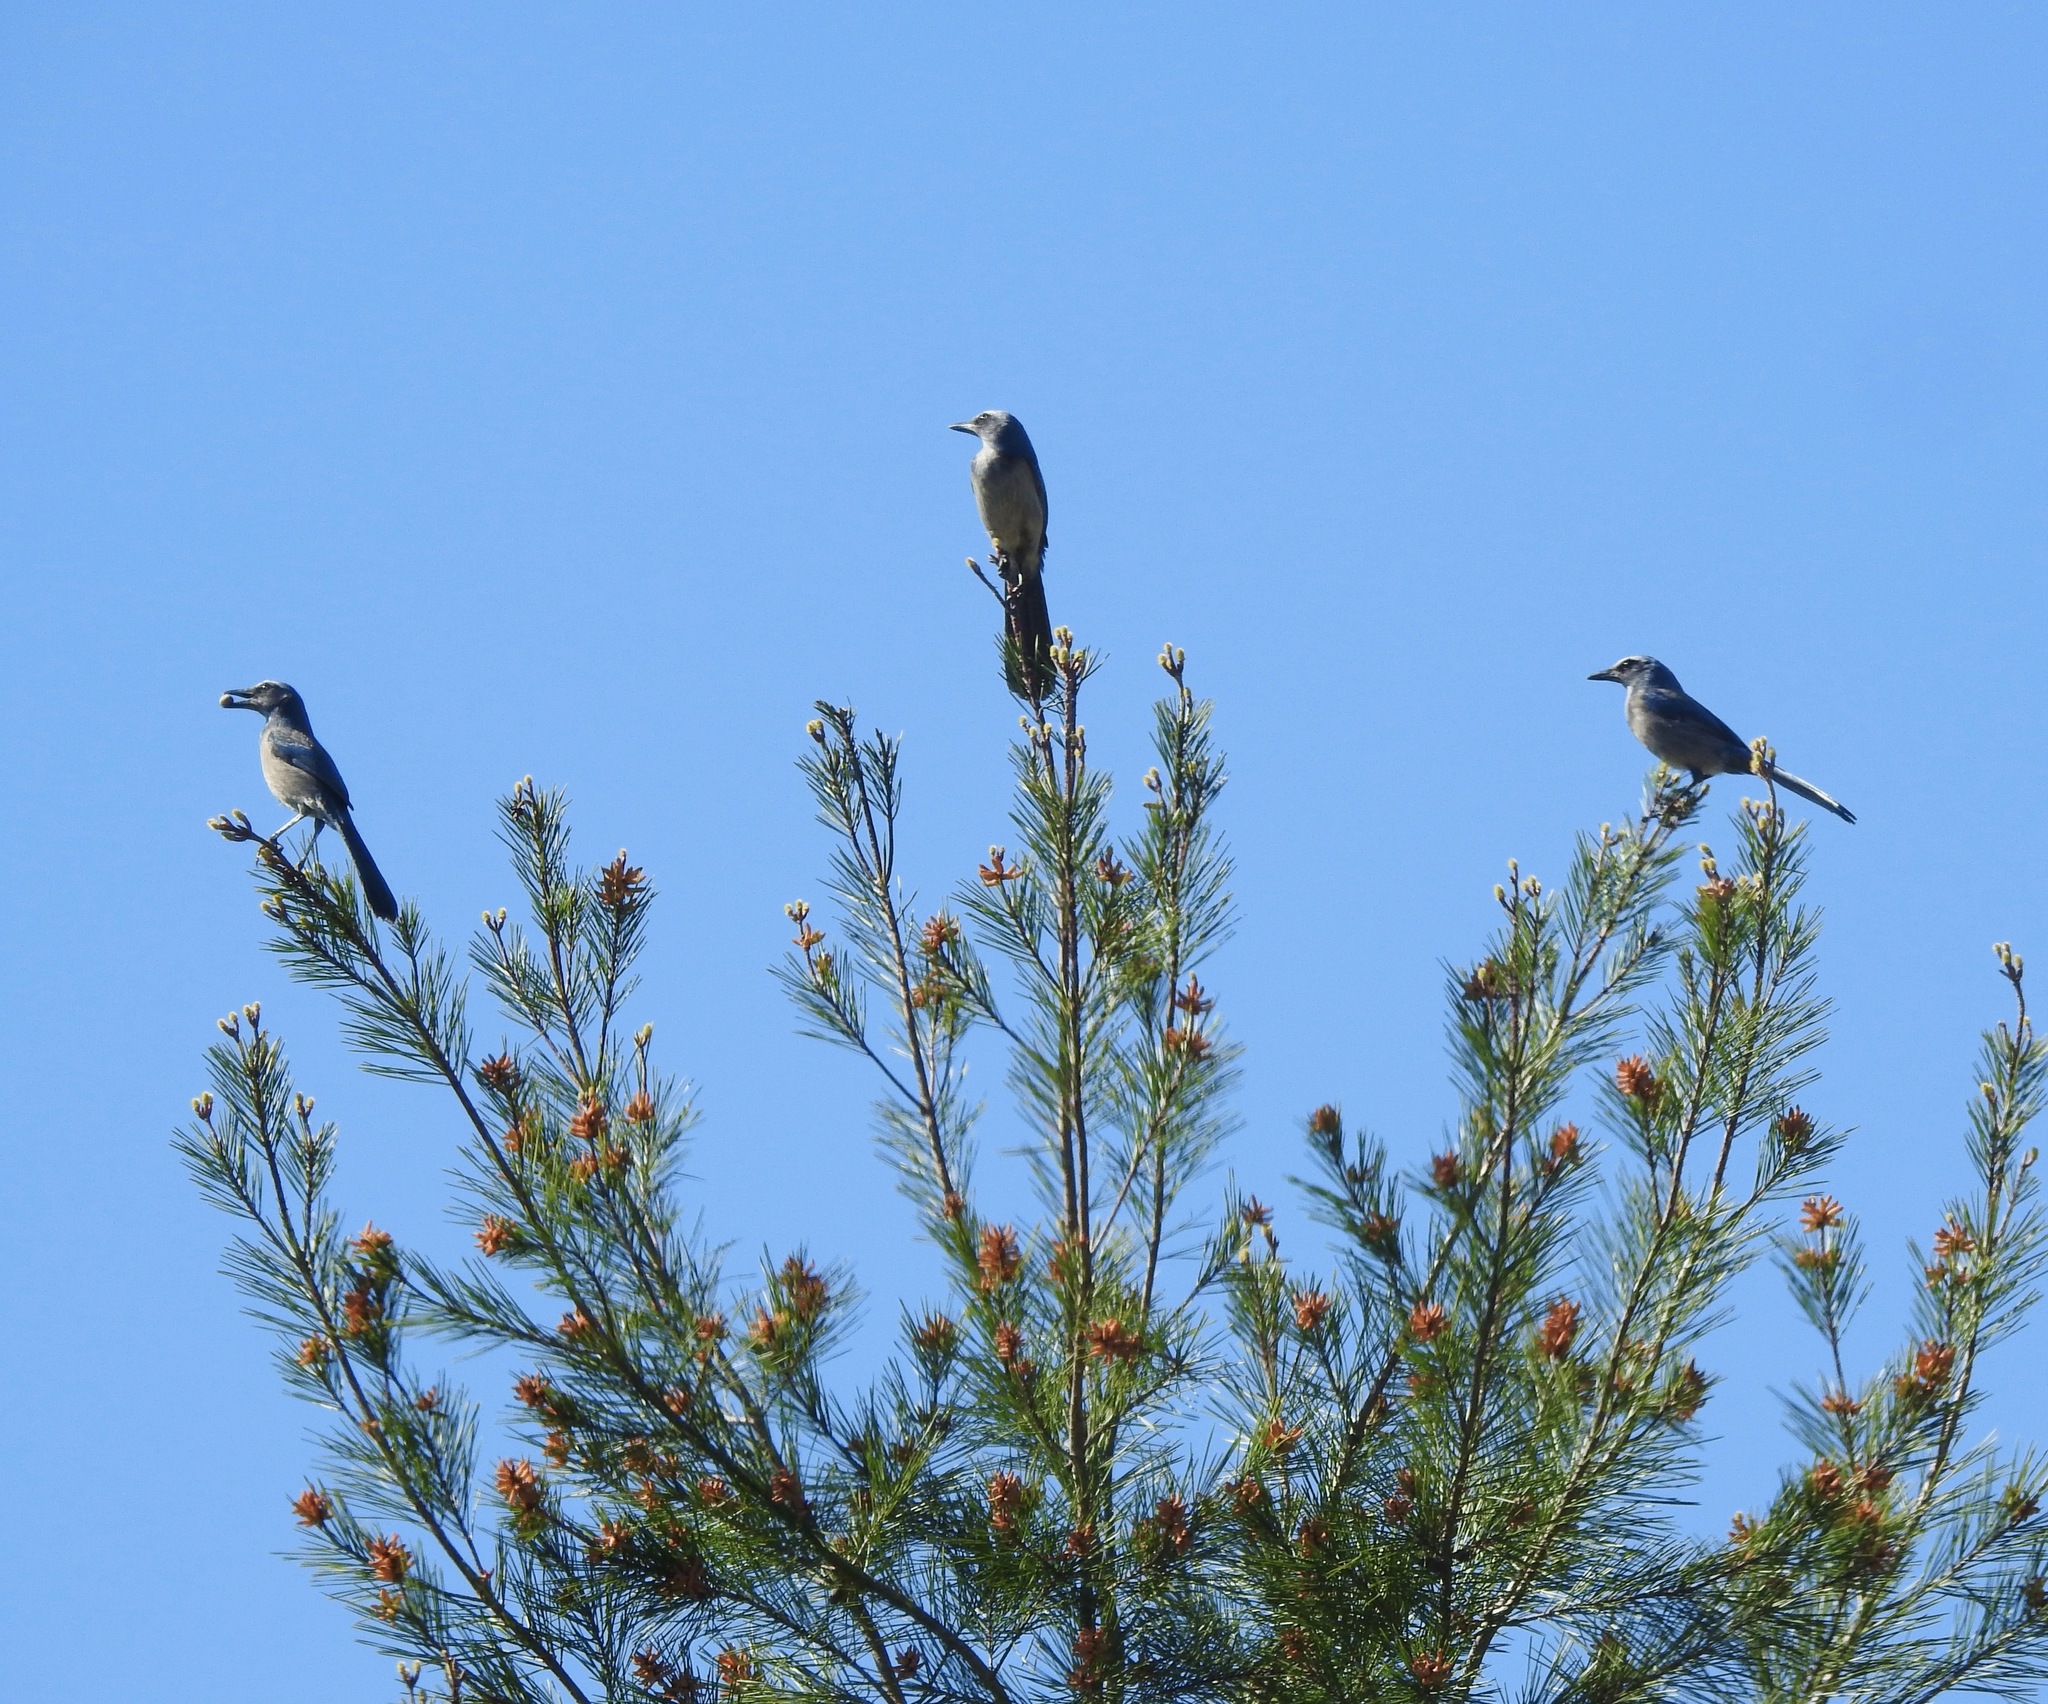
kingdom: Animalia
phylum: Chordata
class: Aves
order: Passeriformes
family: Corvidae
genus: Aphelocoma
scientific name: Aphelocoma coerulescens
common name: Florida scrub jay
